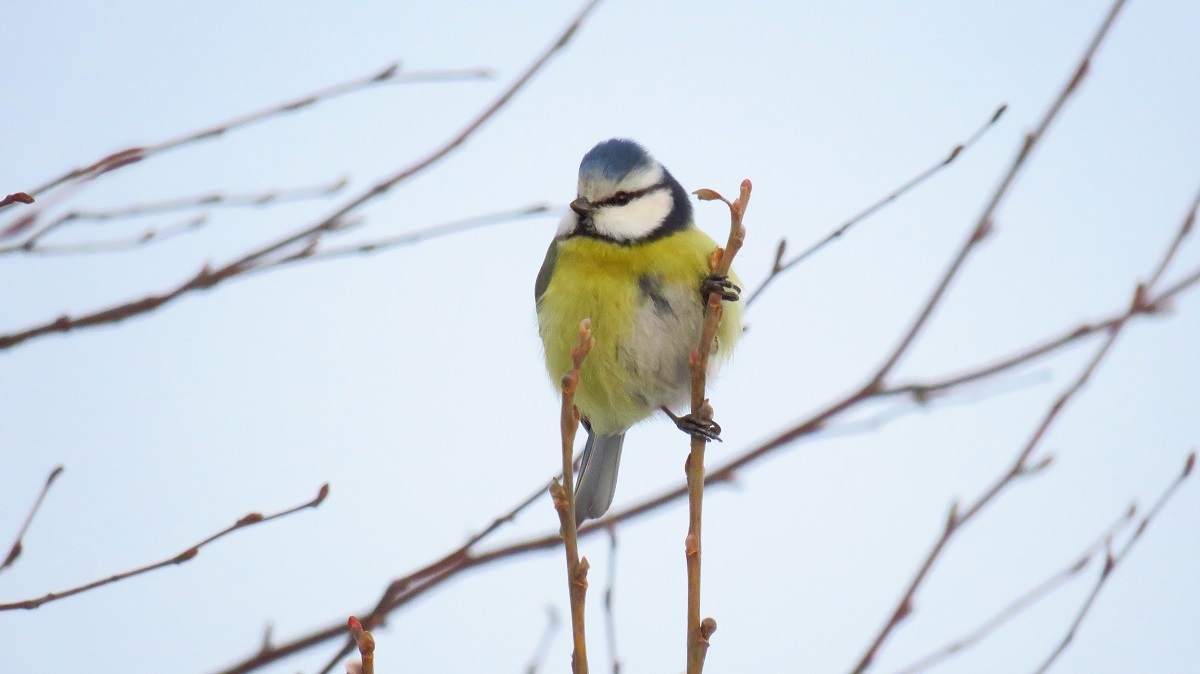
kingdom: Animalia
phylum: Chordata
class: Aves
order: Passeriformes
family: Paridae
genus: Cyanistes
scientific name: Cyanistes caeruleus
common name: Eurasian blue tit
